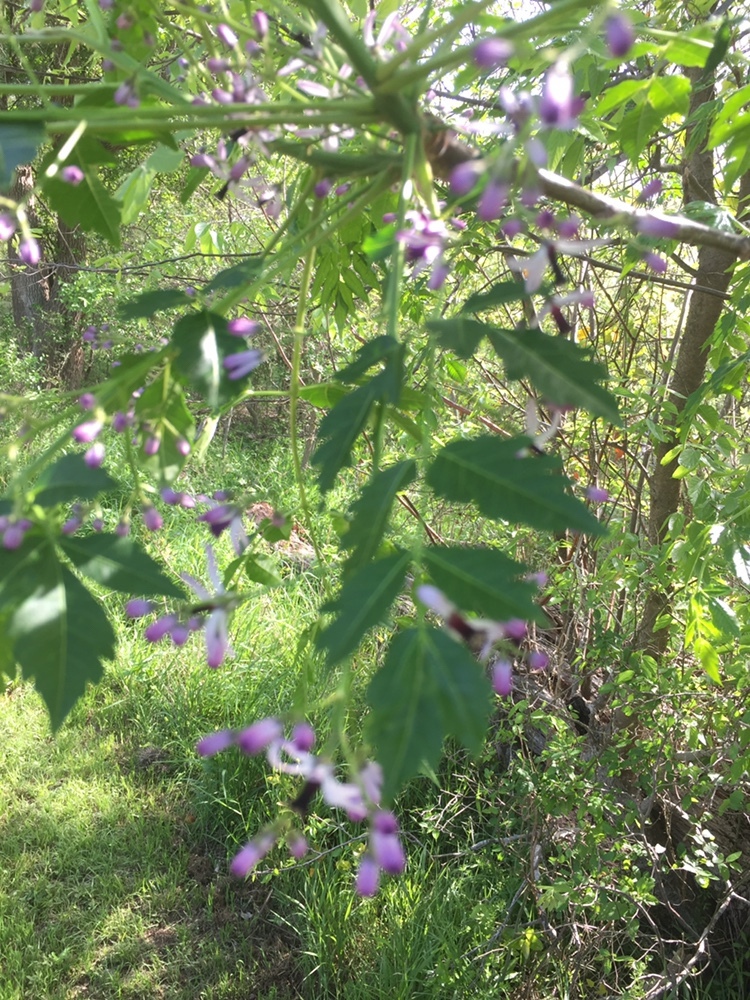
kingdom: Plantae
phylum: Tracheophyta
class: Magnoliopsida
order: Sapindales
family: Meliaceae
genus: Melia
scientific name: Melia azedarach
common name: Chinaberrytree
